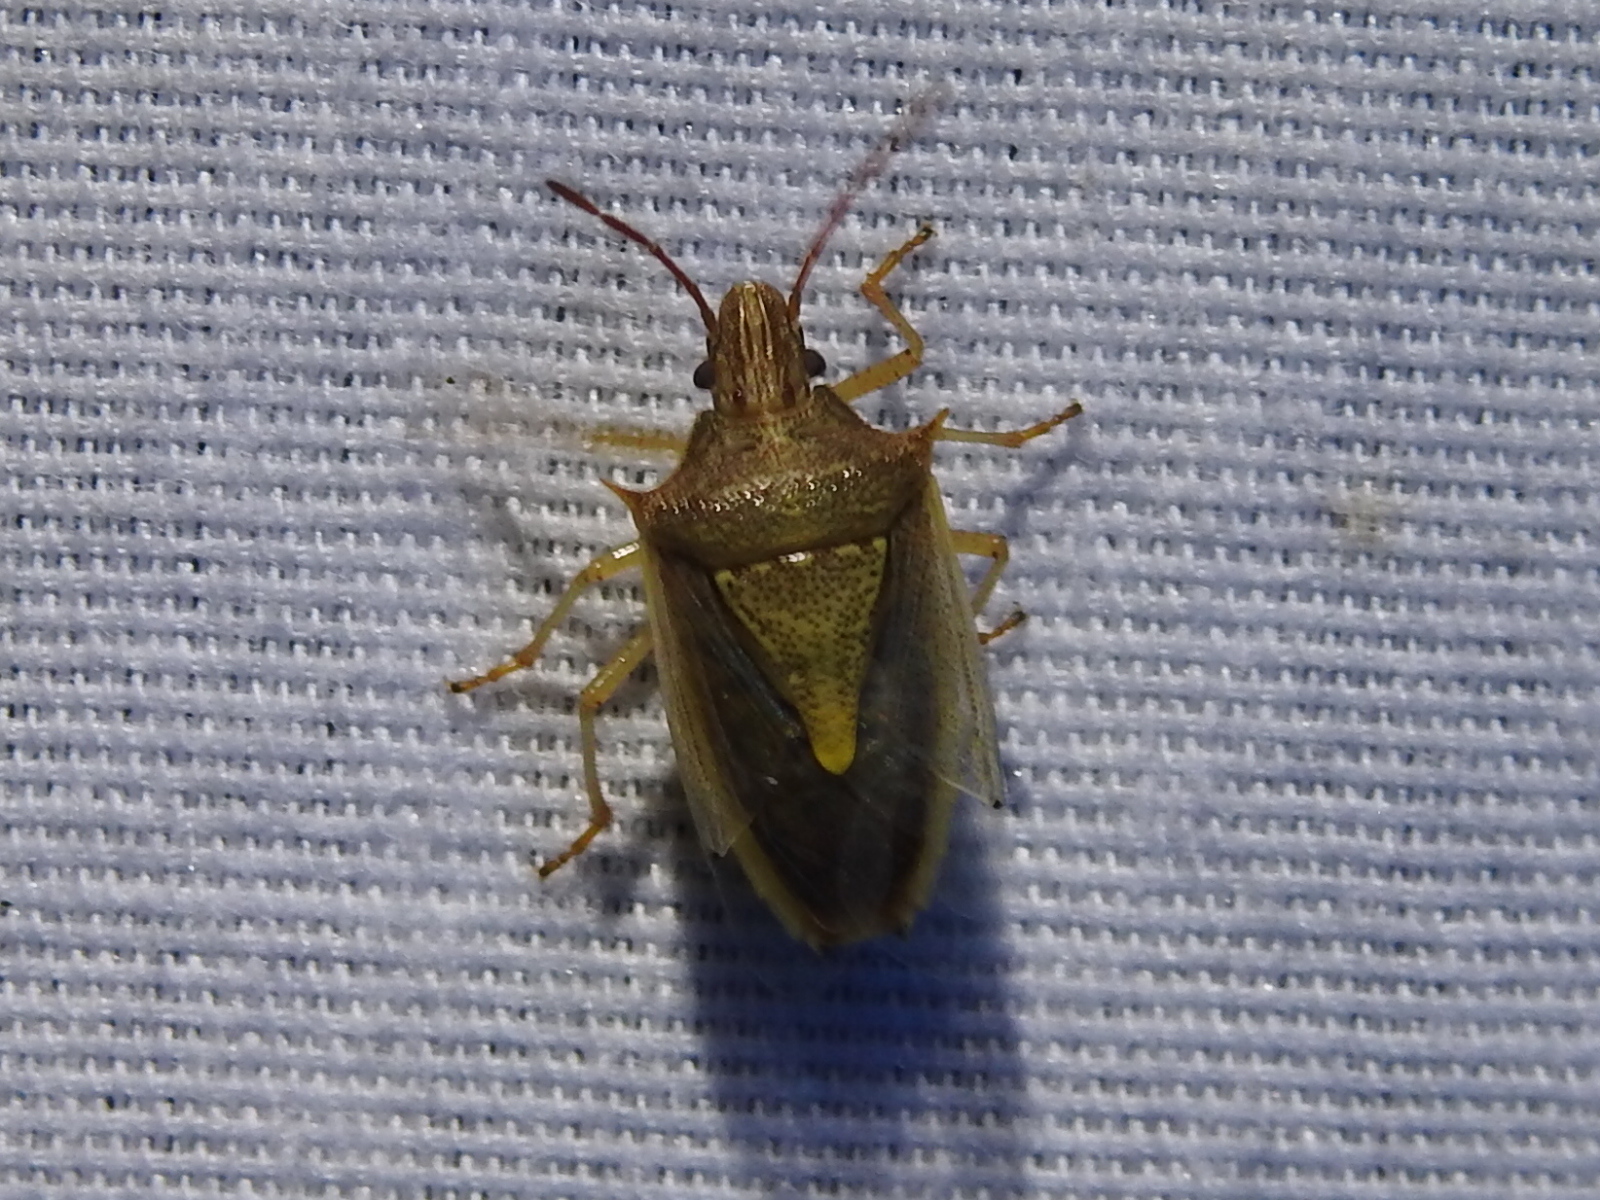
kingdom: Animalia
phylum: Arthropoda
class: Insecta
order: Hemiptera
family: Pentatomidae
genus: Oebalus
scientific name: Oebalus pugnax
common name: Rice stink bug
